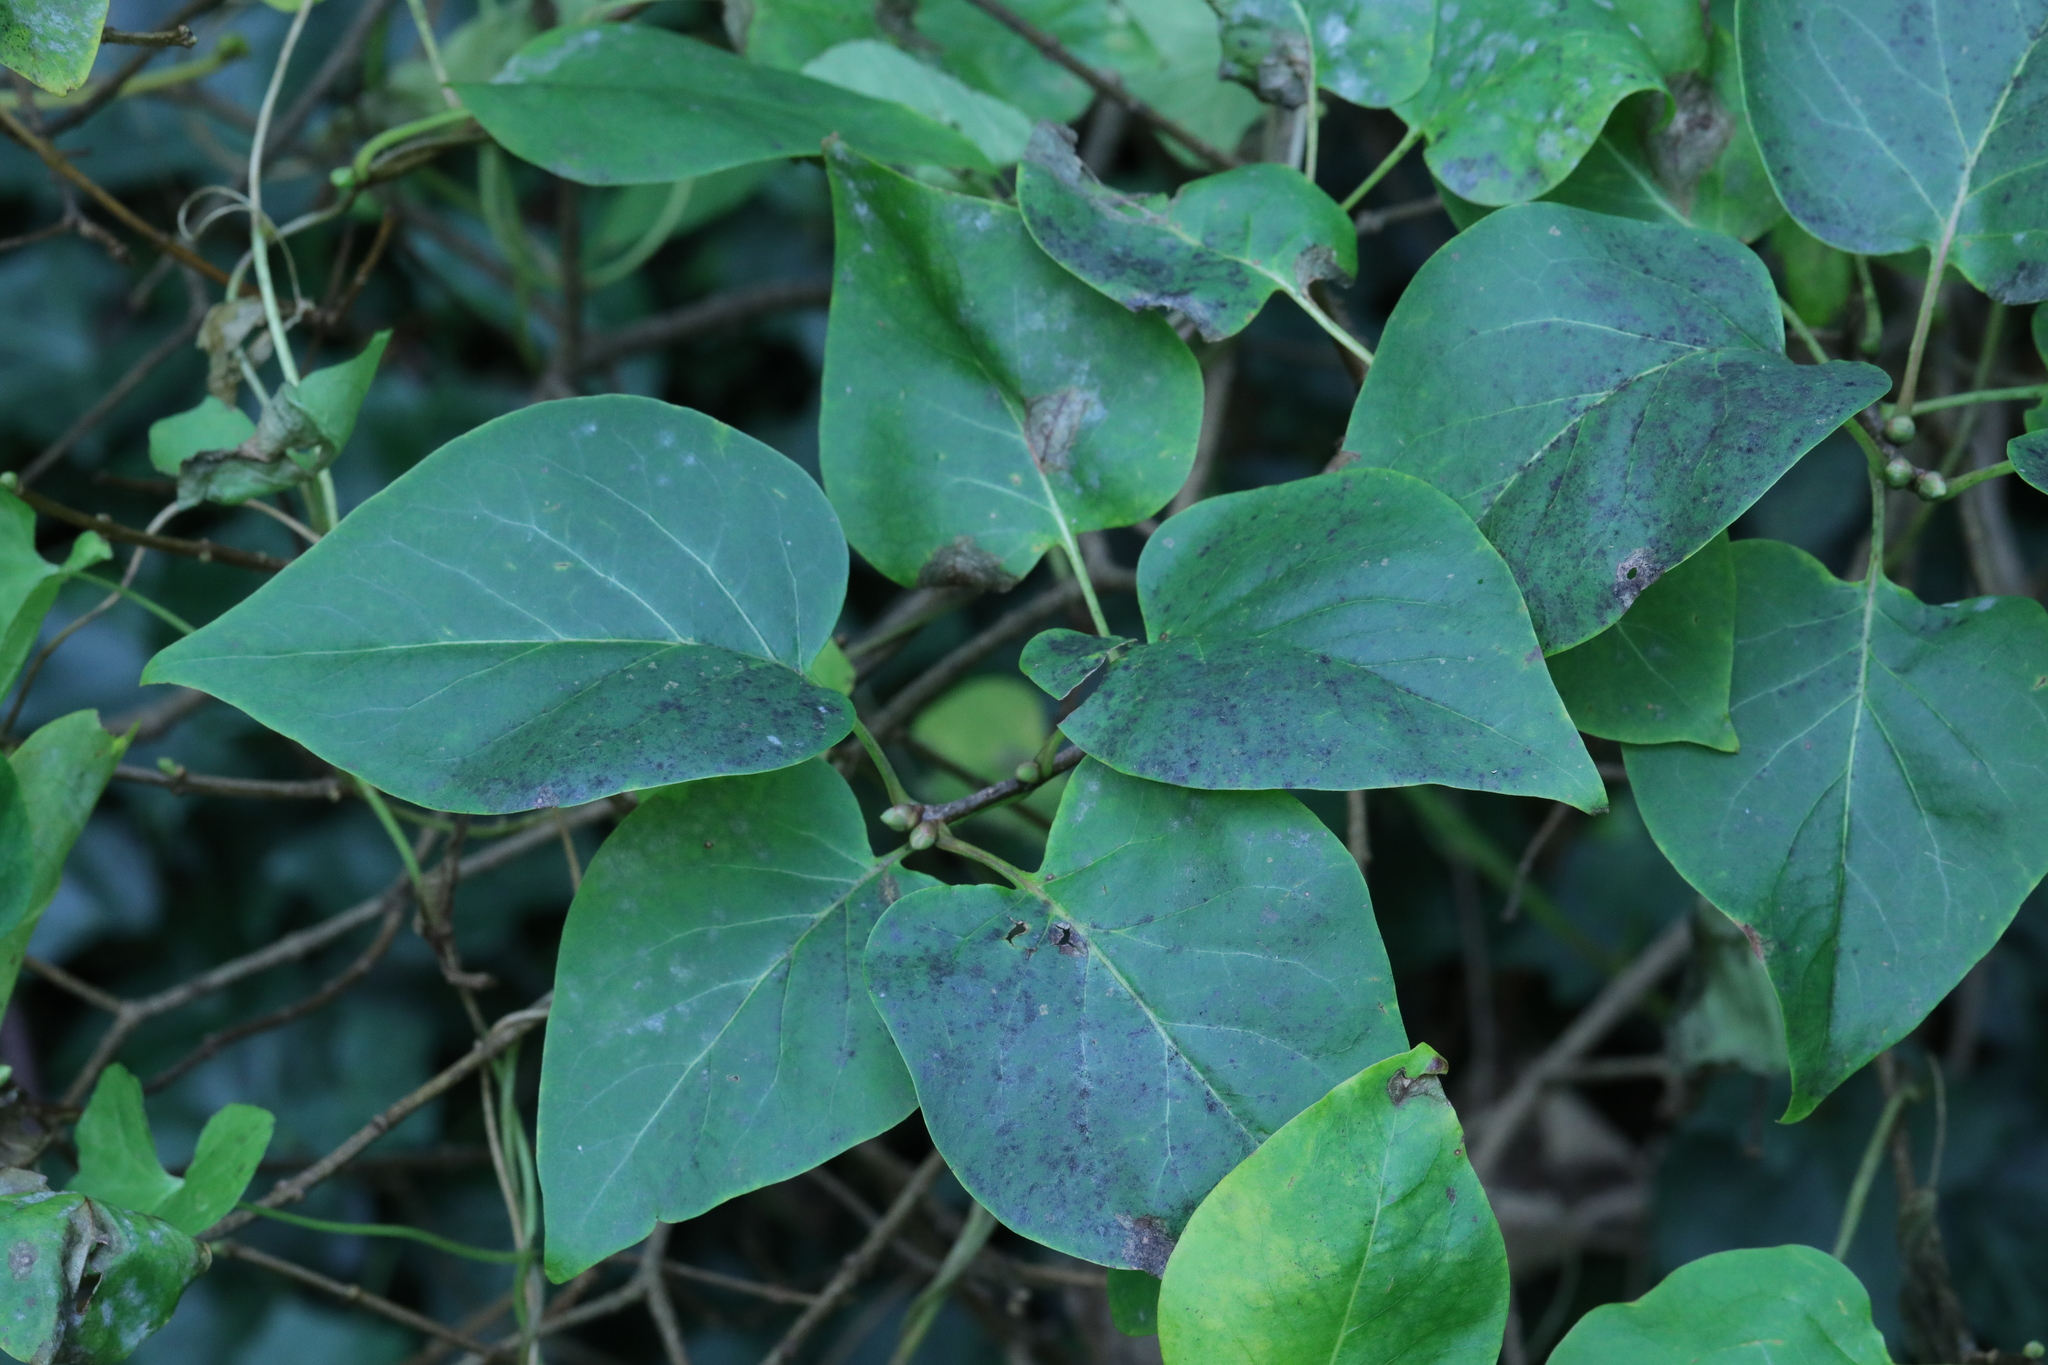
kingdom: Plantae
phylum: Tracheophyta
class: Magnoliopsida
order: Lamiales
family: Oleaceae
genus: Syringa
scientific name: Syringa vulgaris
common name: Common lilac
